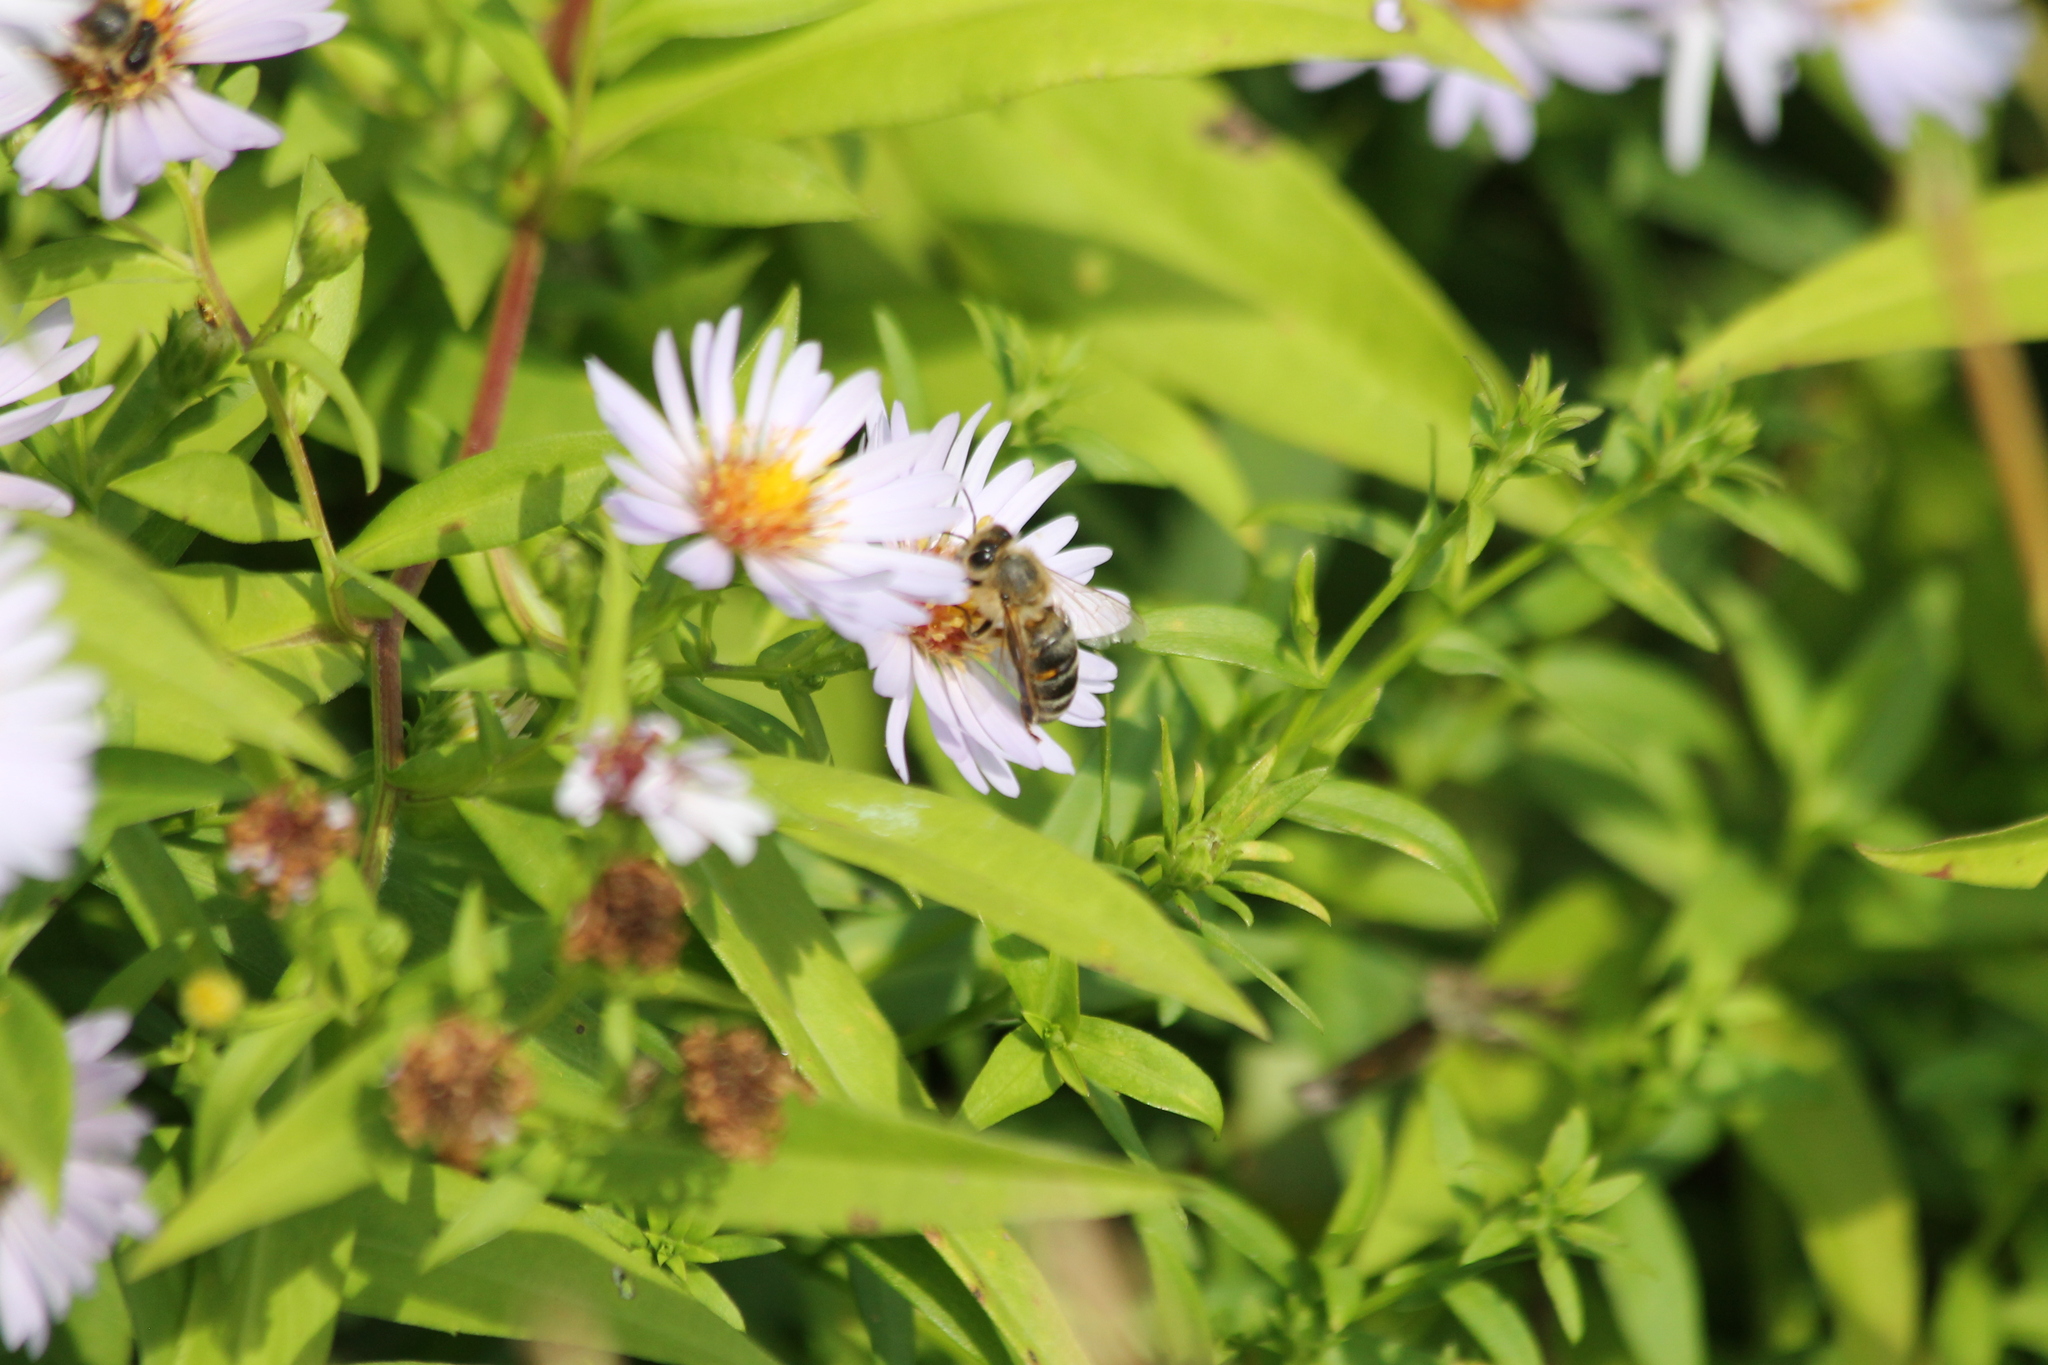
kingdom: Animalia
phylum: Arthropoda
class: Insecta
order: Hymenoptera
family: Apidae
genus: Apis
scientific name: Apis mellifera
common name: Honey bee
